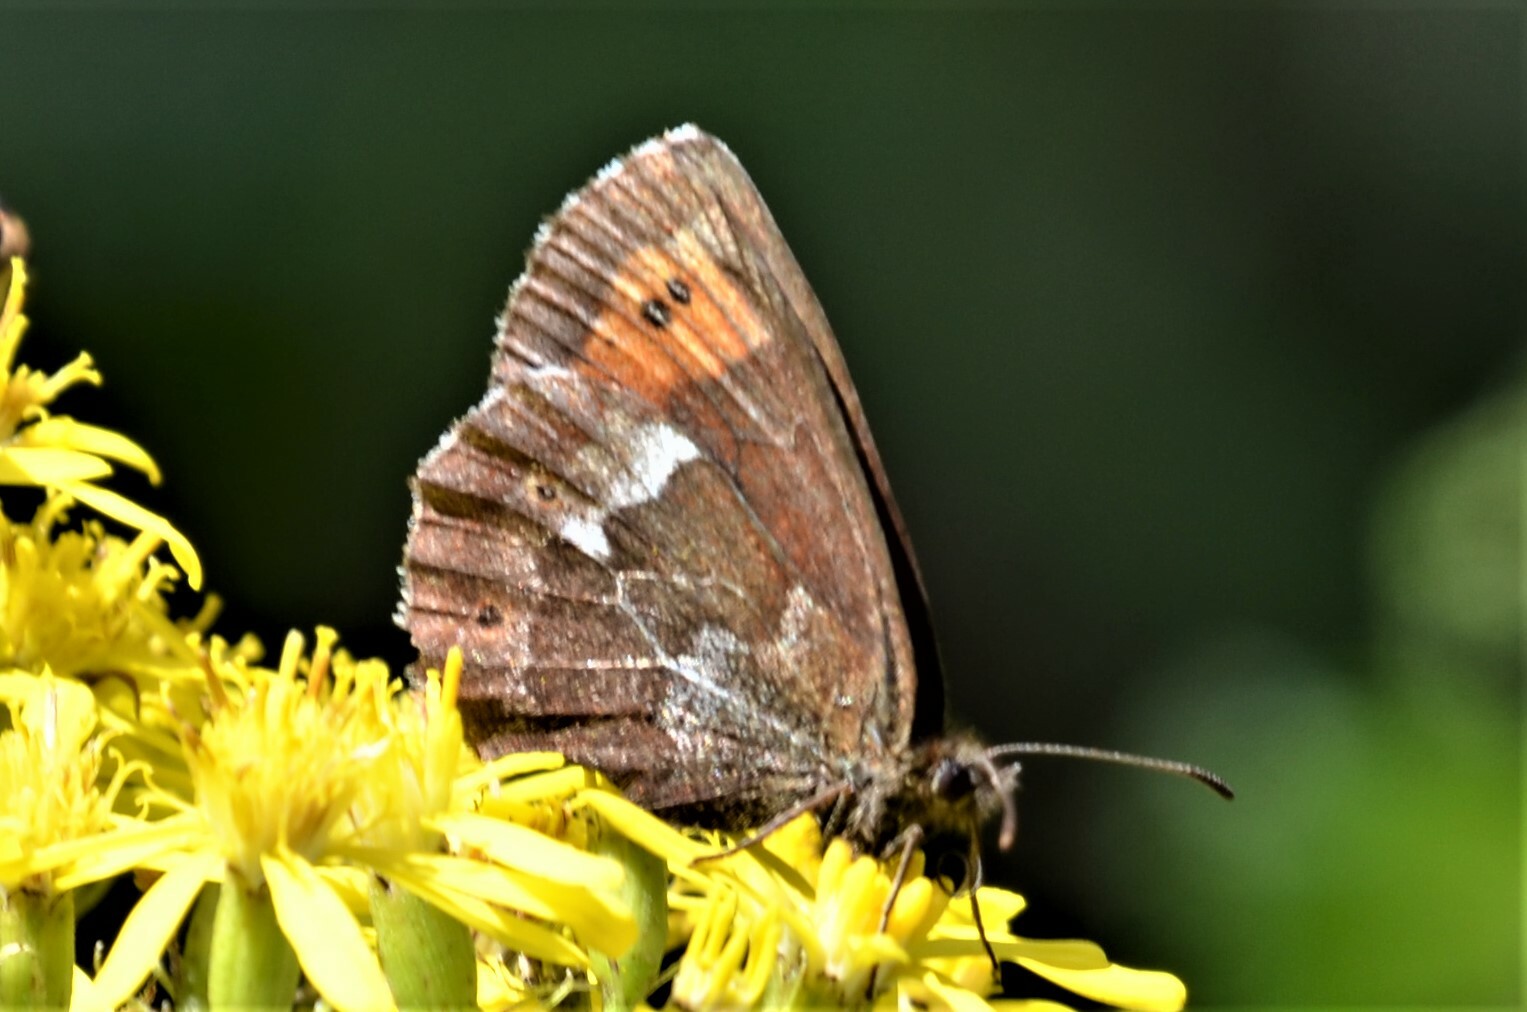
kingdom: Animalia
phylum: Arthropoda
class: Insecta
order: Lepidoptera
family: Nymphalidae
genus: Erebia
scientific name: Erebia ligea
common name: Arran brown
